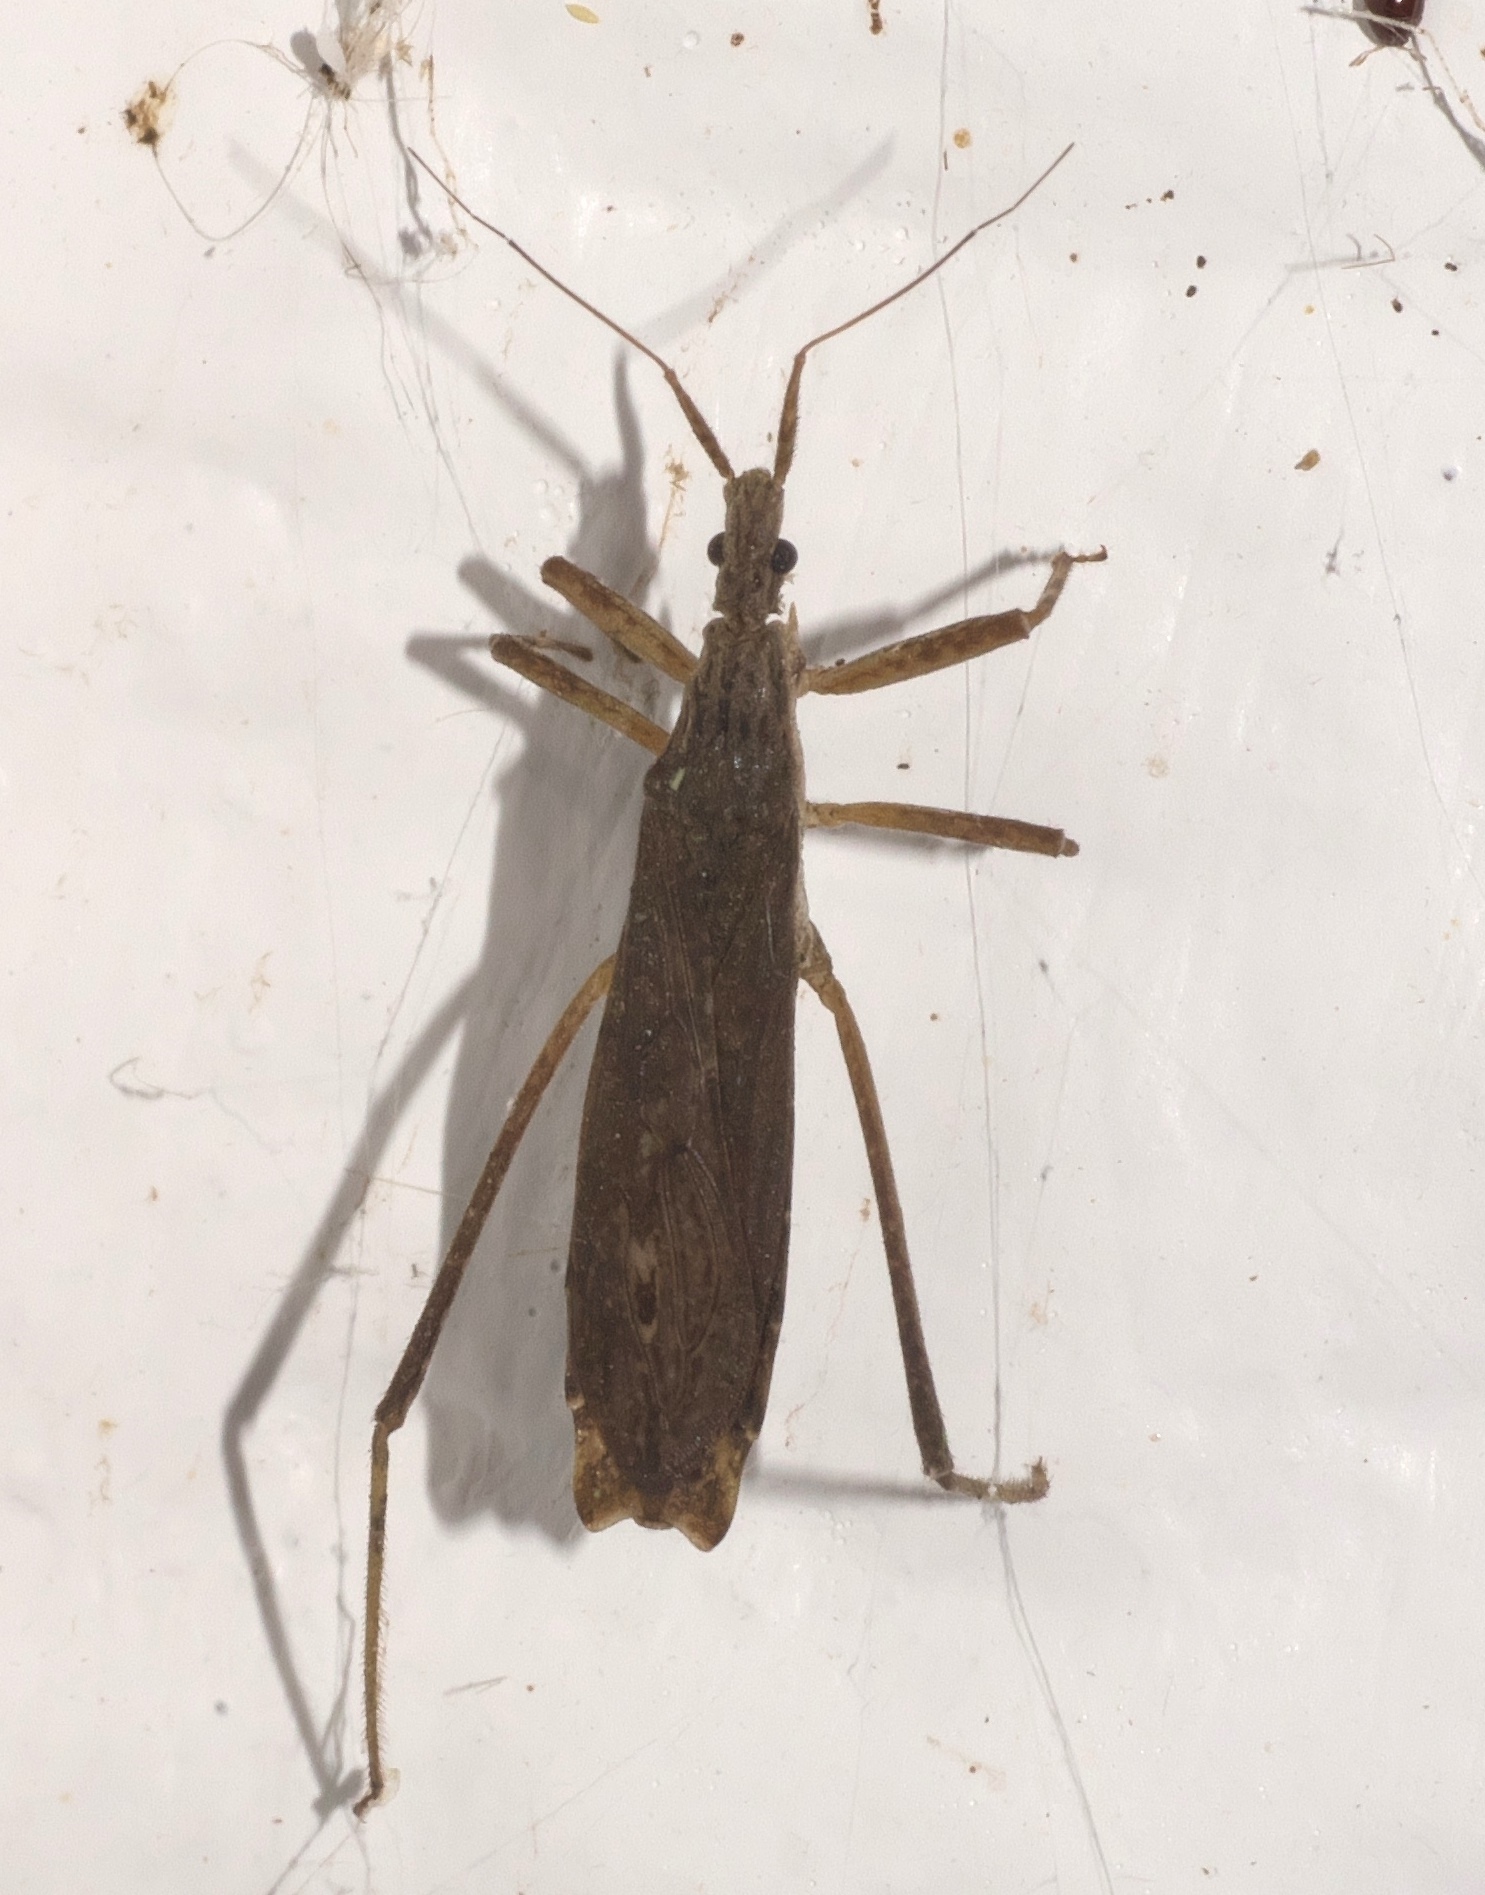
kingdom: Animalia
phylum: Arthropoda
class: Insecta
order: Hemiptera
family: Reduviidae
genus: Pygolampis
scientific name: Pygolampis pectoralis
